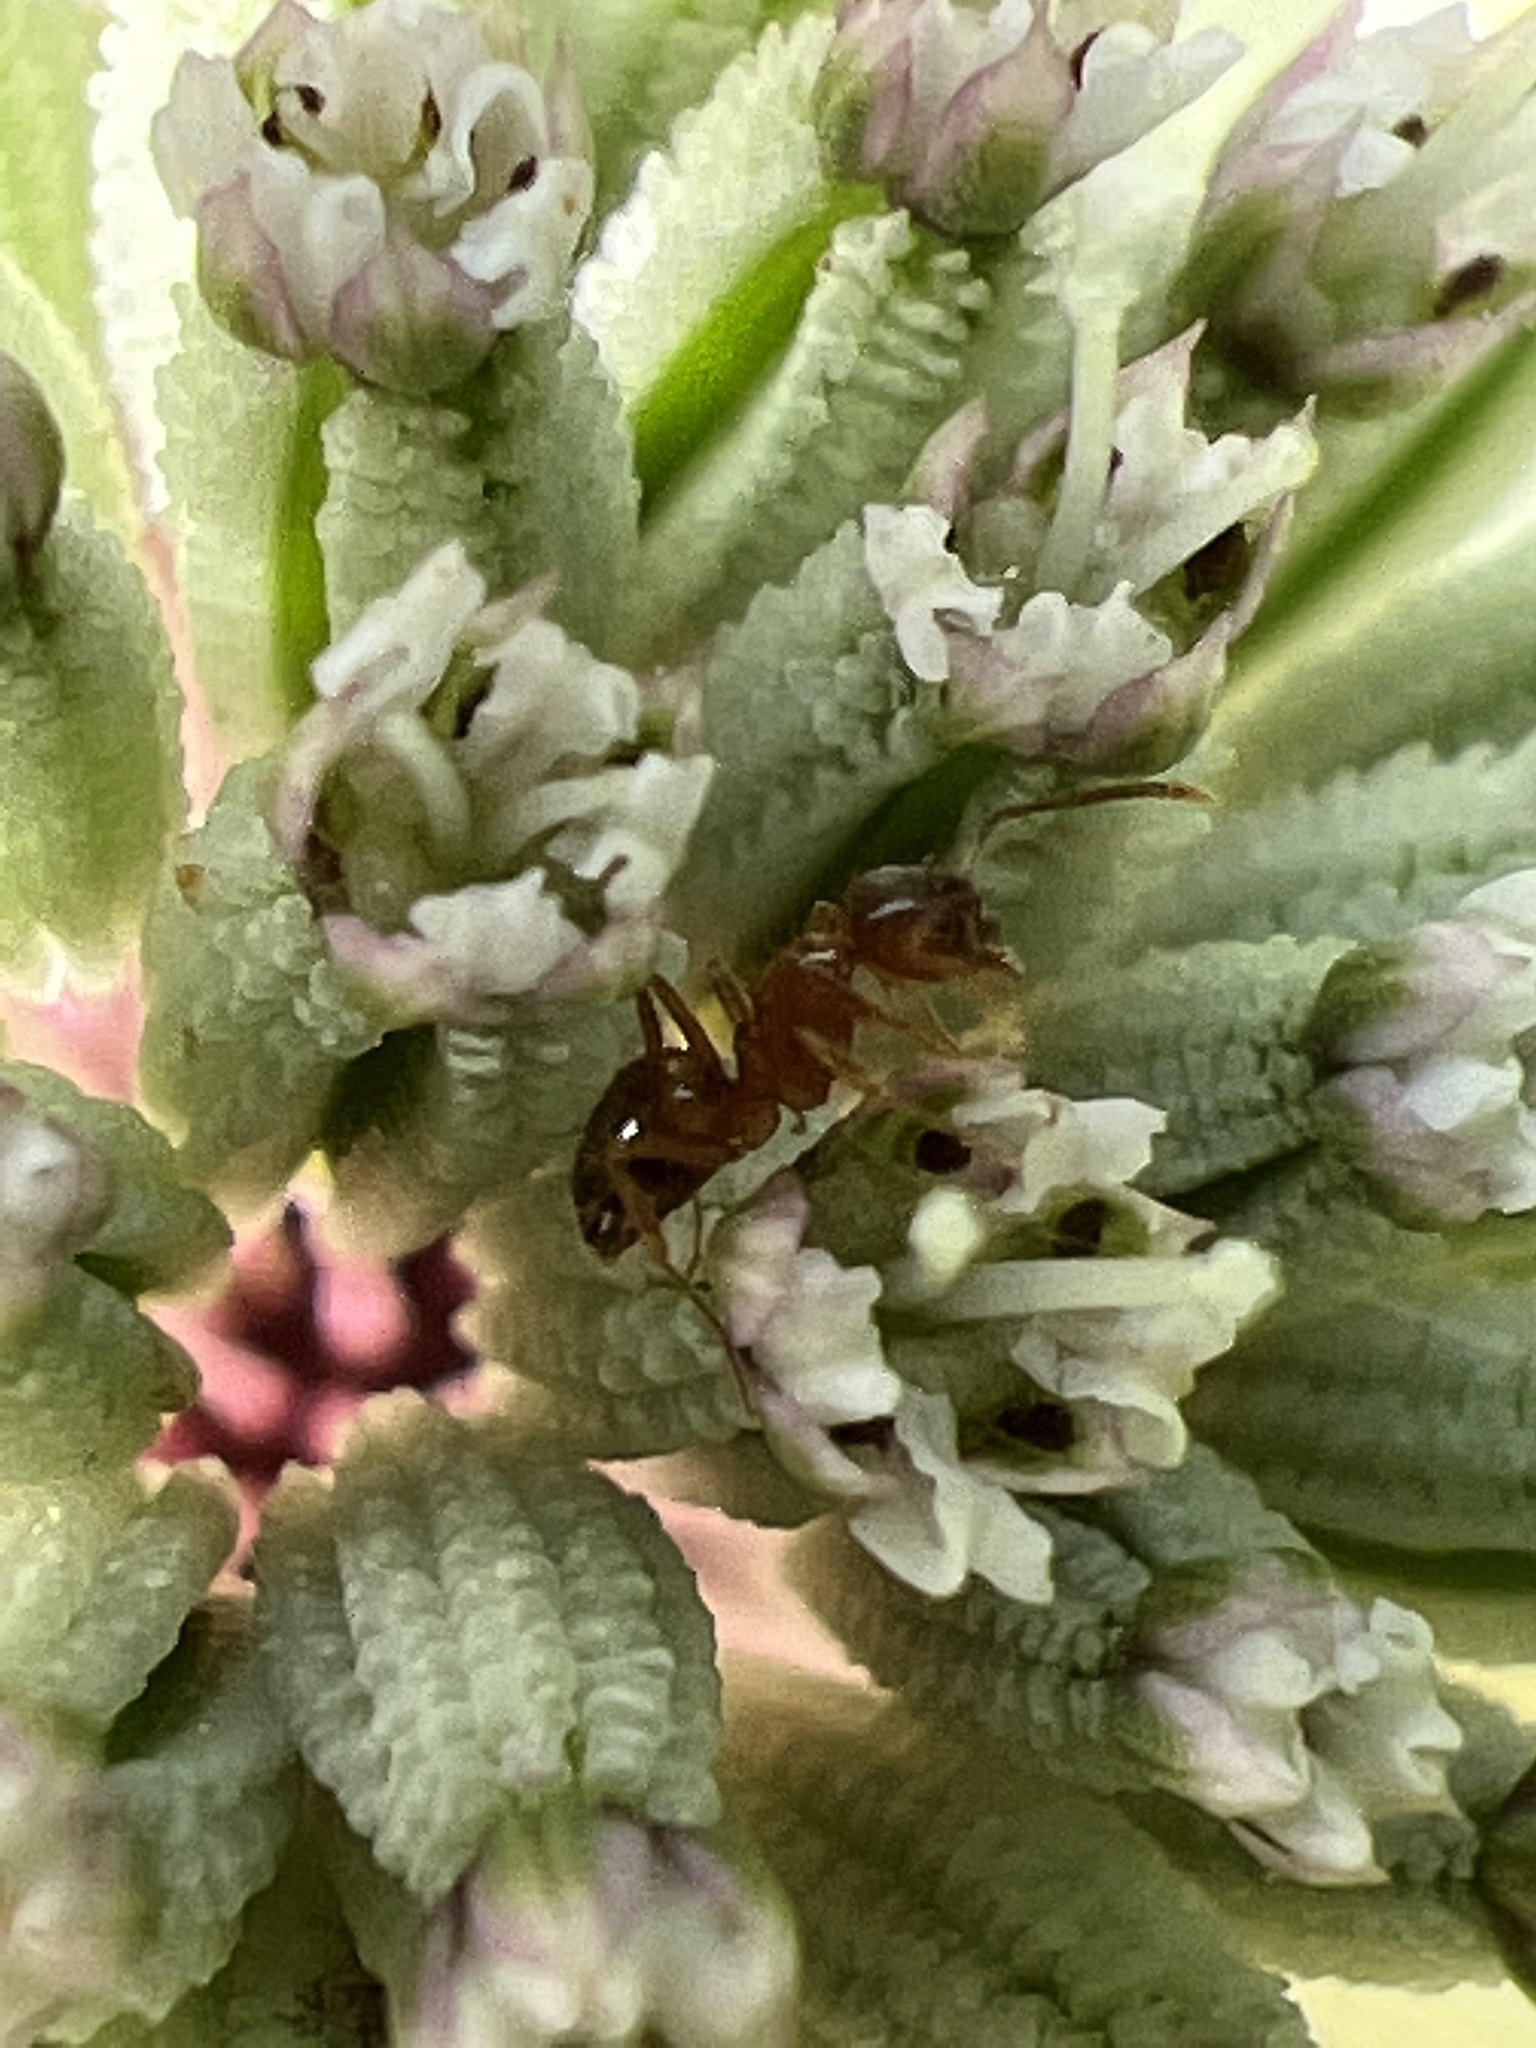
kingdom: Animalia
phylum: Arthropoda
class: Insecta
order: Hymenoptera
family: Formicidae
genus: Paratrechina
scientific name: Paratrechina flavipes
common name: Eastern asian formicine ant
